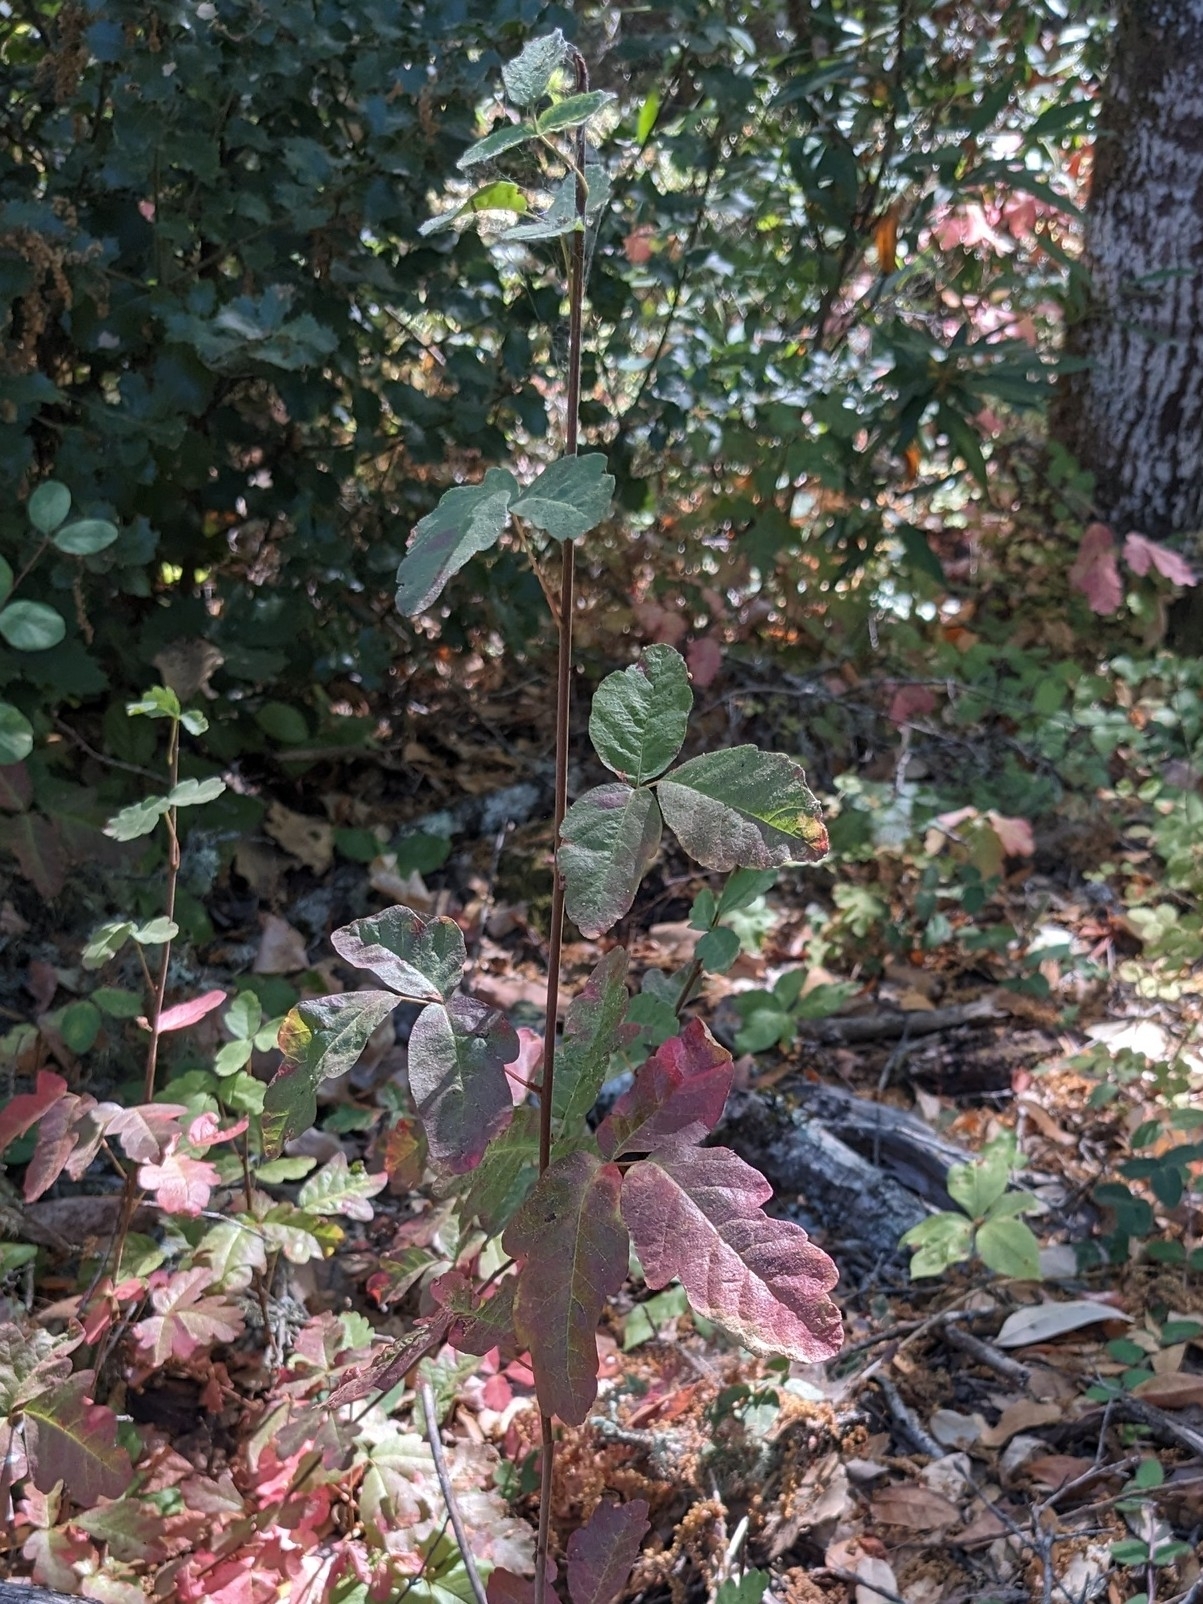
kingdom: Plantae
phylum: Tracheophyta
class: Magnoliopsida
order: Sapindales
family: Anacardiaceae
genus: Toxicodendron
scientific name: Toxicodendron diversilobum
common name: Pacific poison-oak
